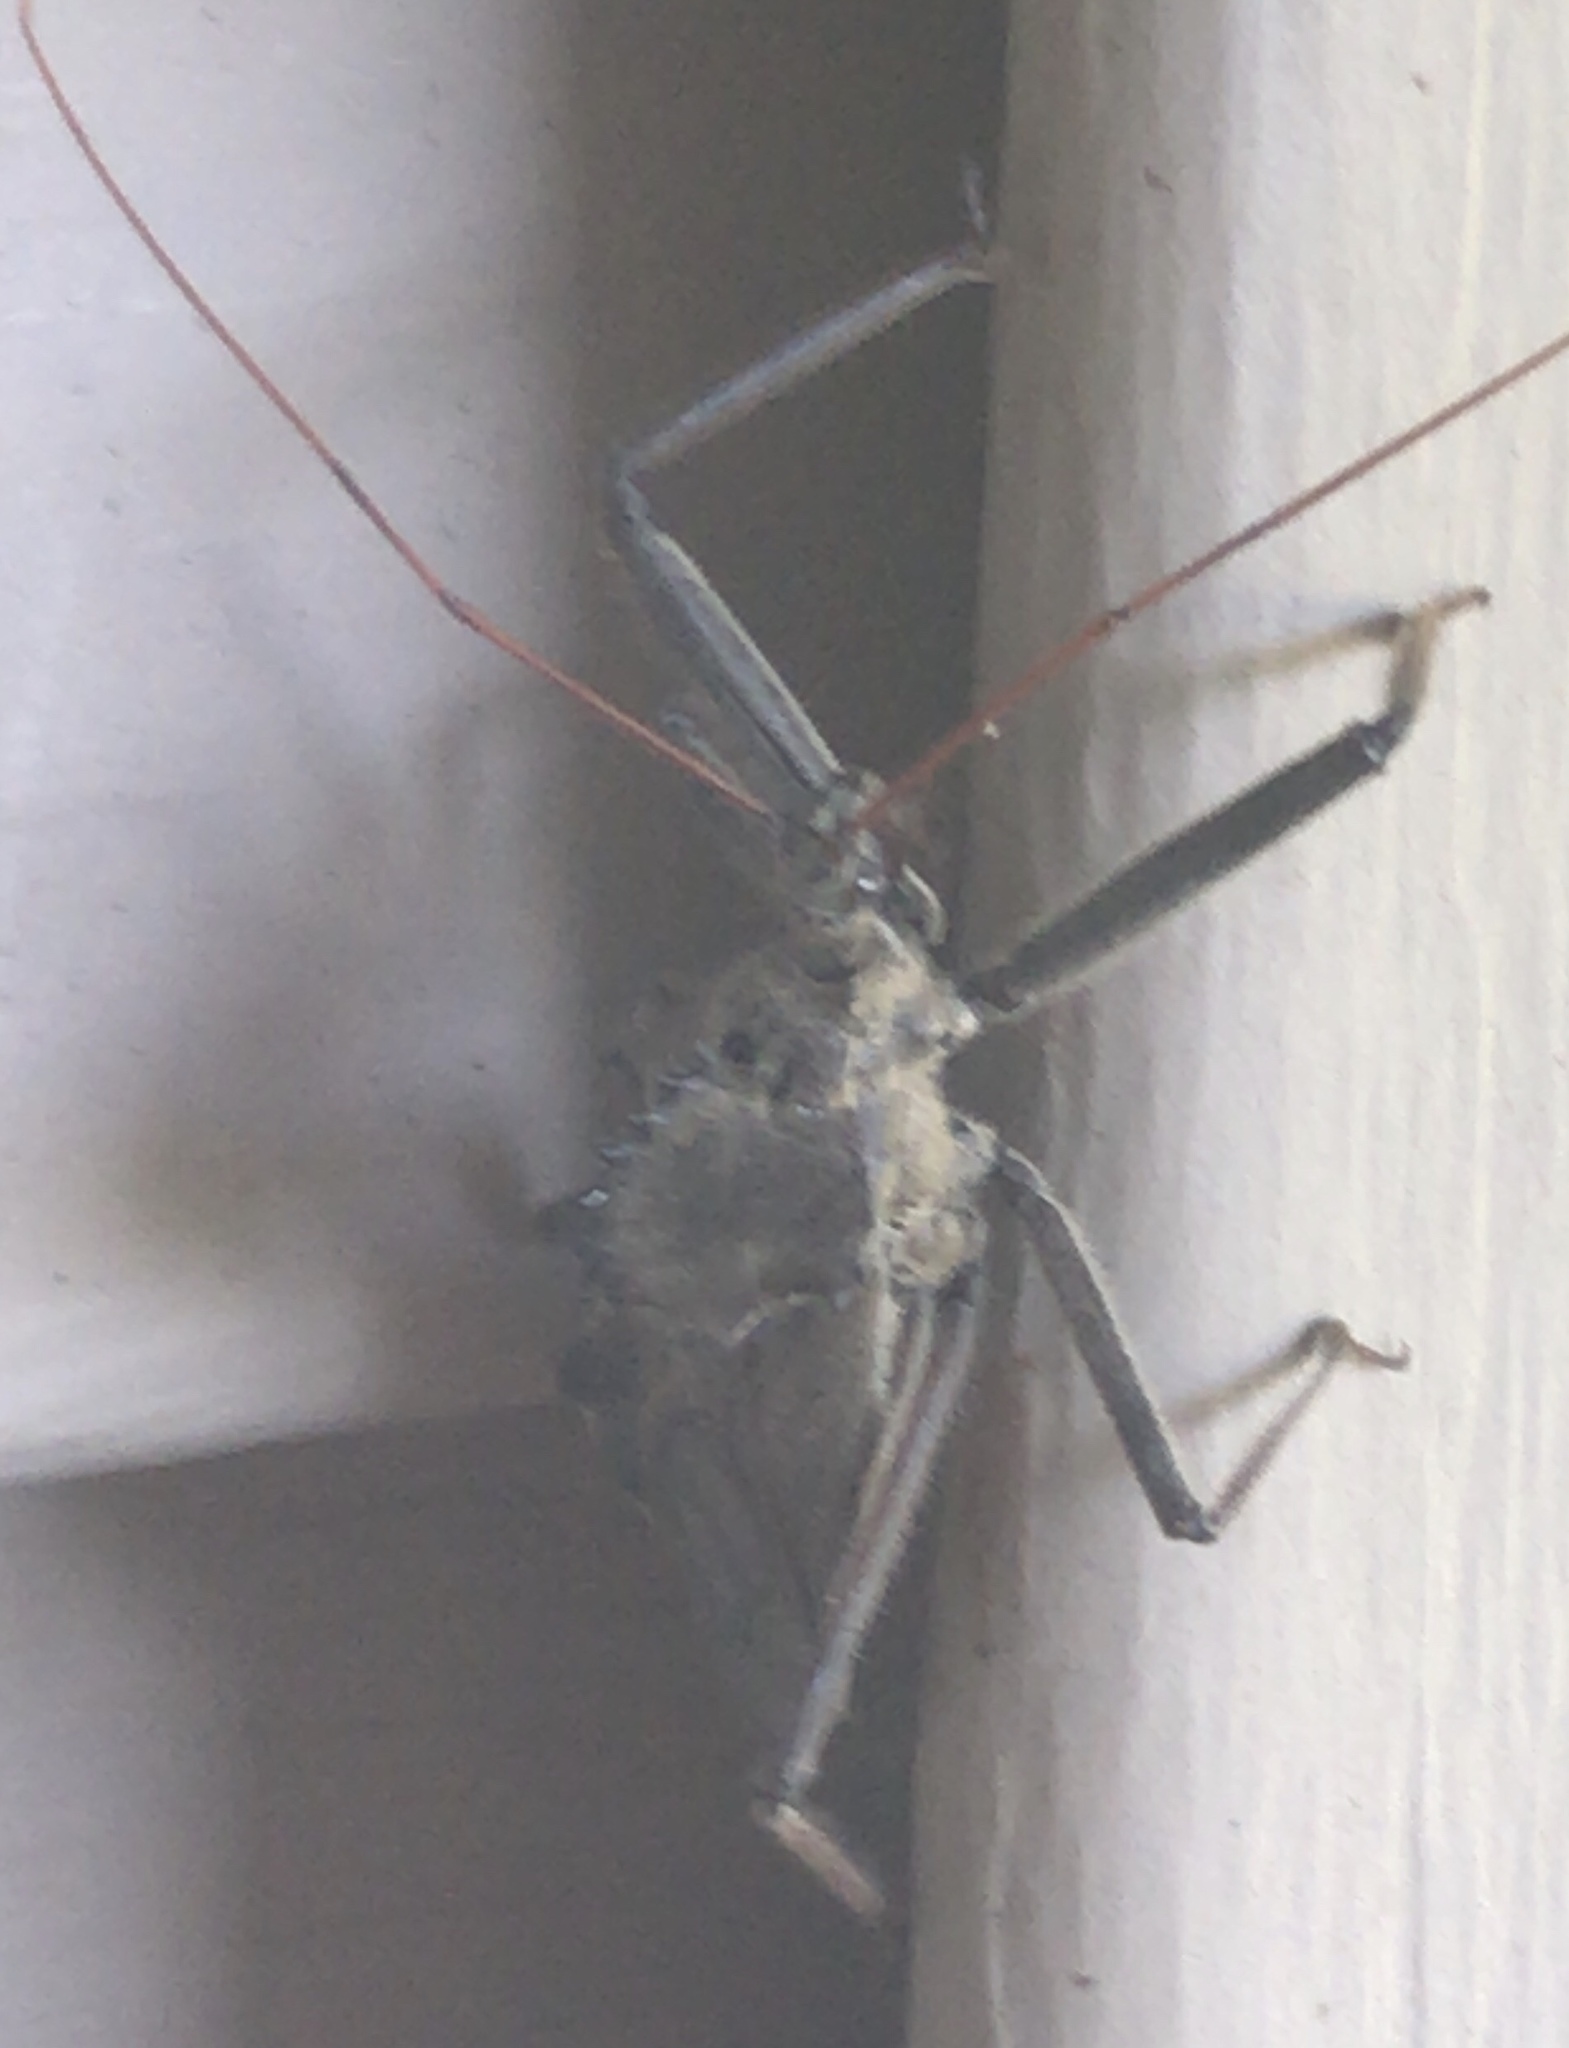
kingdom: Animalia
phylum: Arthropoda
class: Insecta
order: Hemiptera
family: Reduviidae
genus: Arilus
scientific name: Arilus cristatus
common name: North american wheel bug
